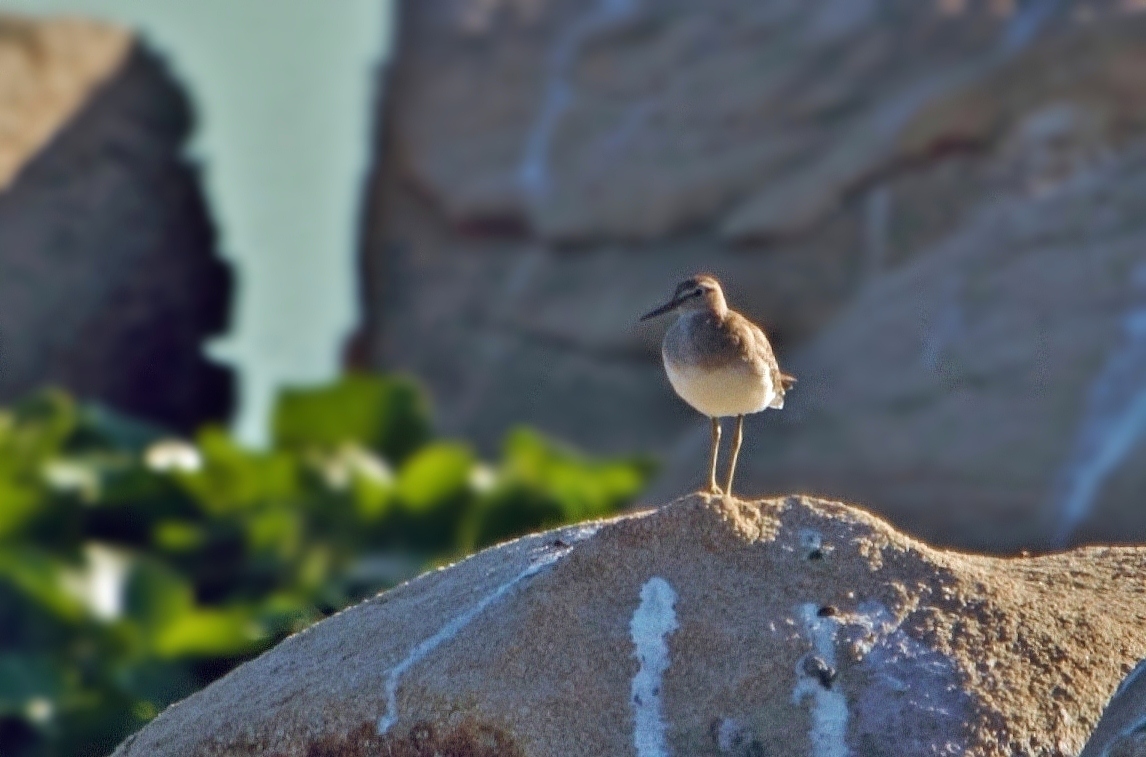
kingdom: Animalia
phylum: Chordata
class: Aves
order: Charadriiformes
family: Scolopacidae
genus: Actitis
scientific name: Actitis hypoleucos
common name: Common sandpiper
